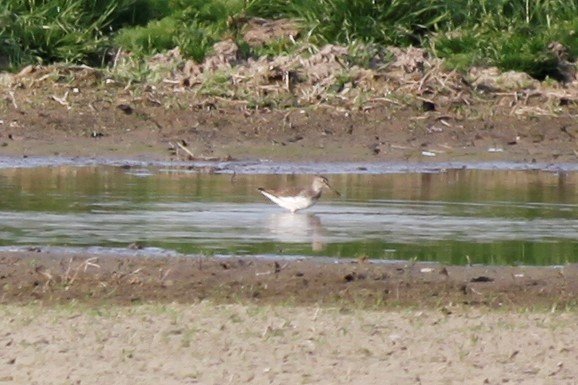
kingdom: Animalia
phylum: Chordata
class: Aves
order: Charadriiformes
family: Scolopacidae
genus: Tringa
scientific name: Tringa ochropus
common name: Green sandpiper
